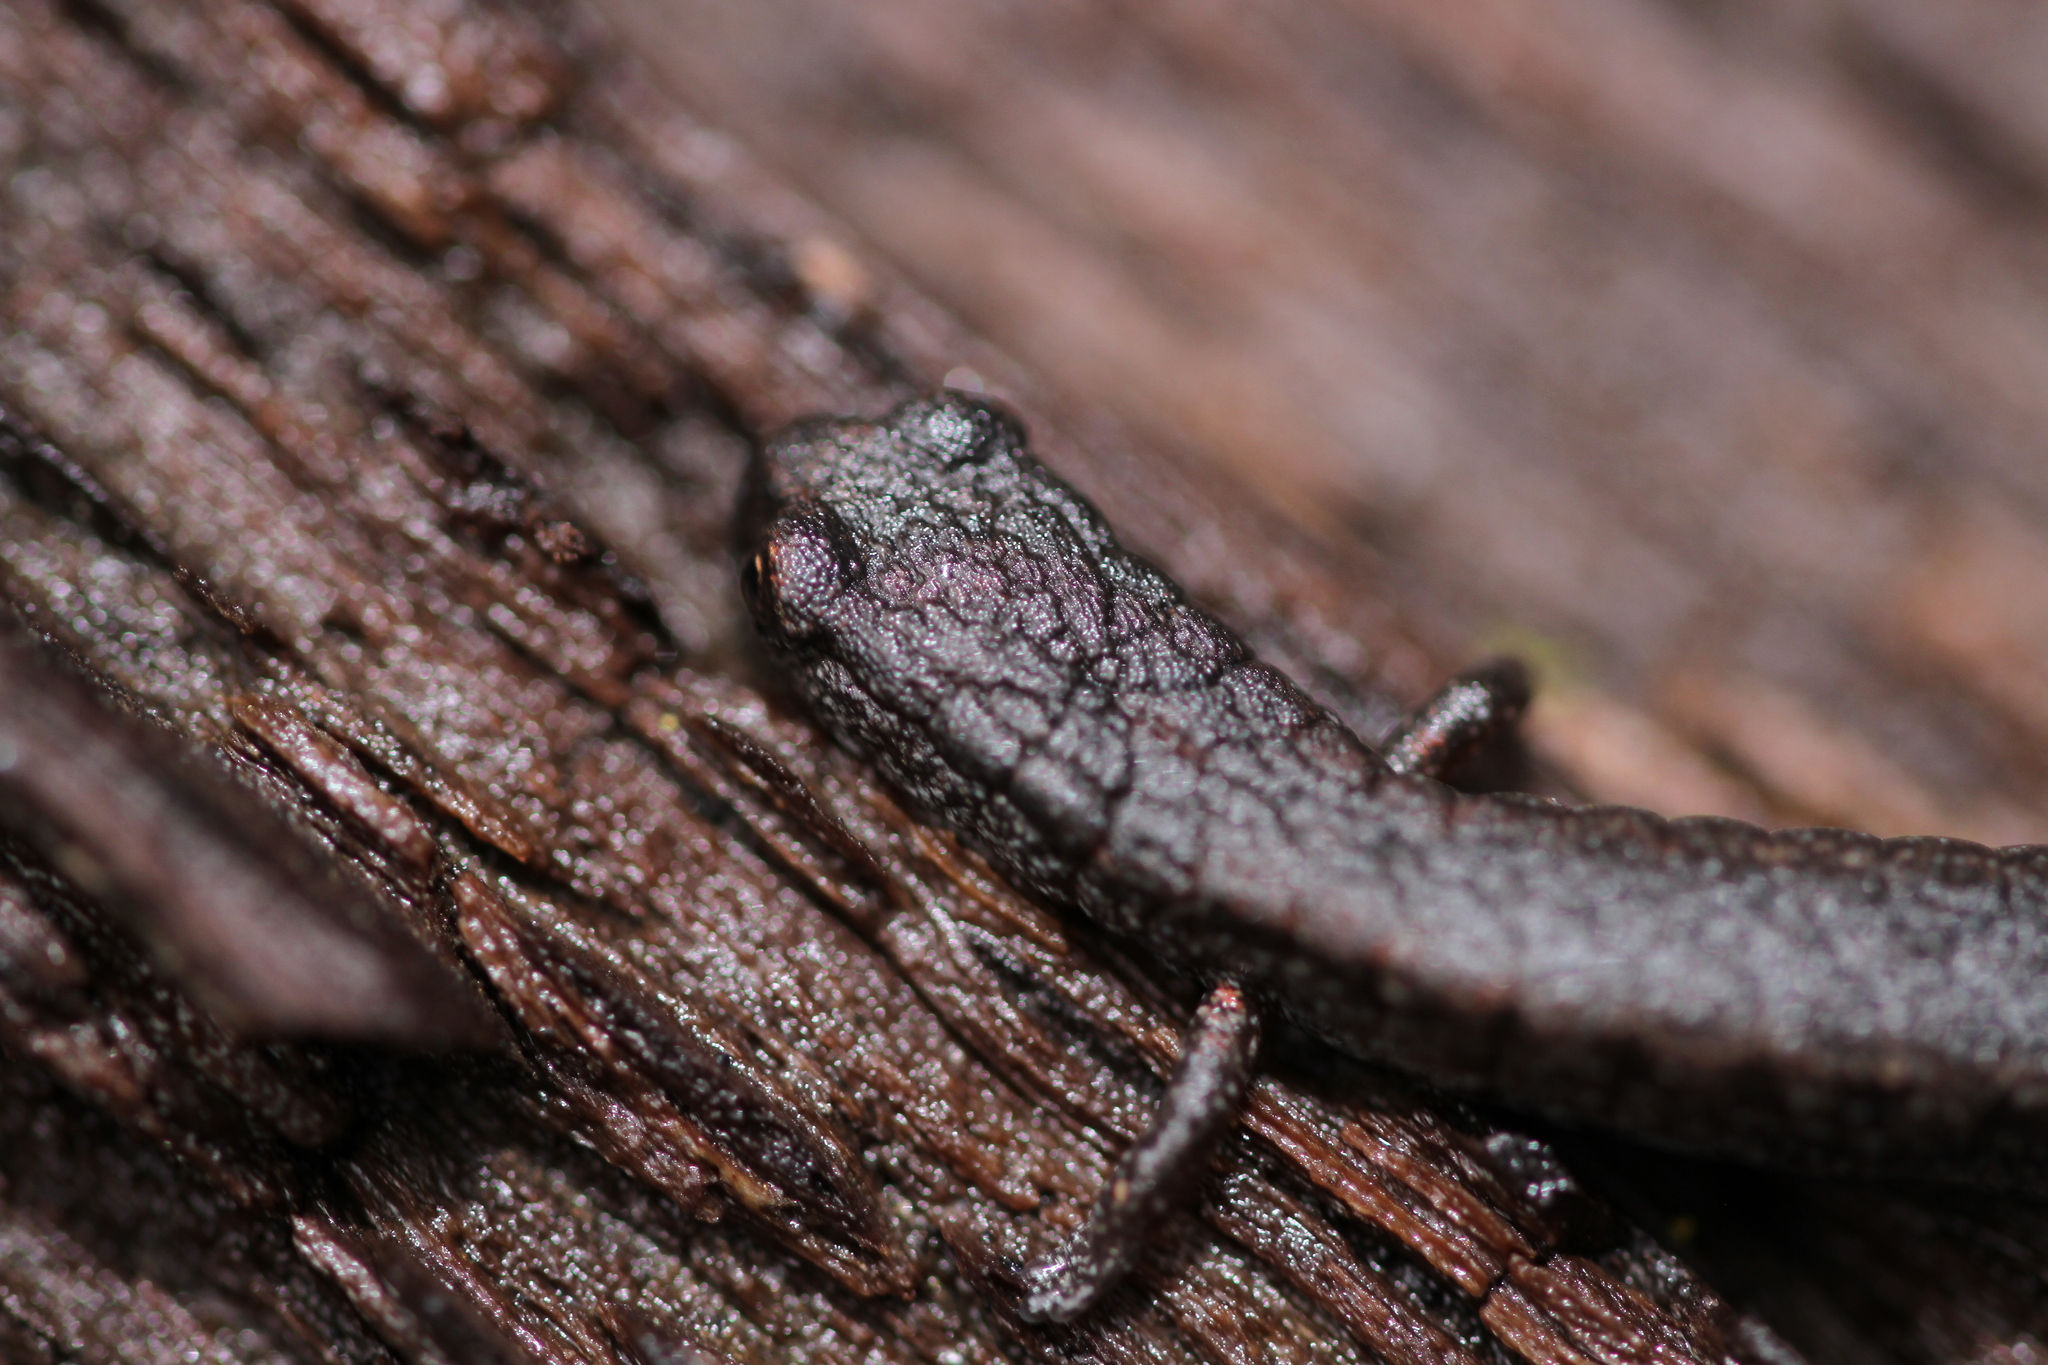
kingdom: Animalia
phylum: Chordata
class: Amphibia
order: Caudata
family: Plethodontidae
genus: Batrachoseps
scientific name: Batrachoseps attenuatus
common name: California slender salamander
